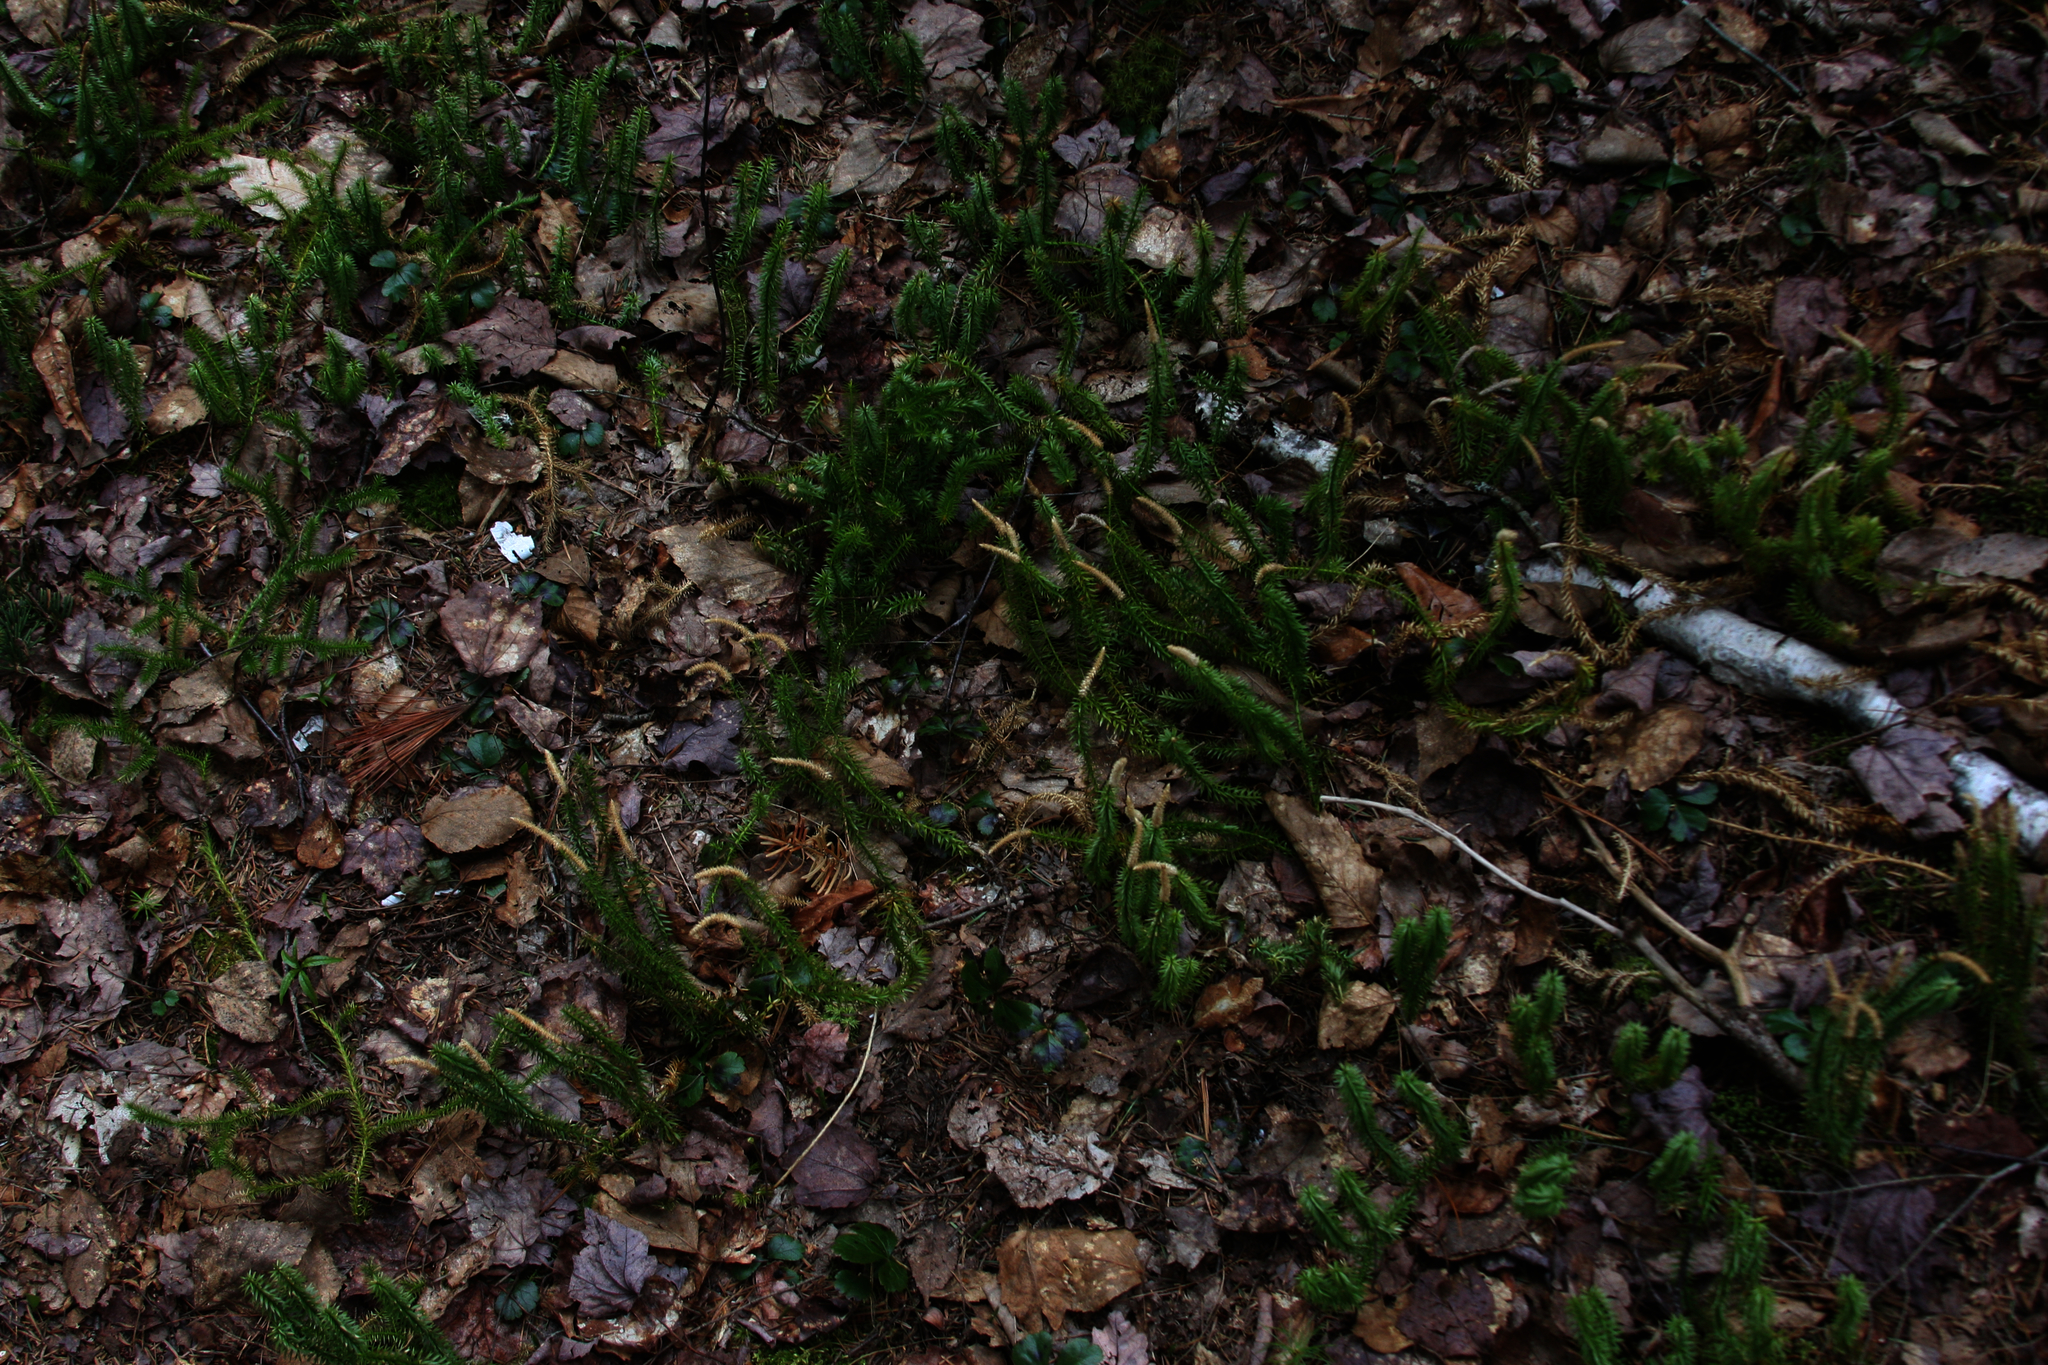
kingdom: Plantae
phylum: Tracheophyta
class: Lycopodiopsida
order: Lycopodiales
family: Lycopodiaceae
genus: Spinulum
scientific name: Spinulum annotinum
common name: Interrupted club-moss
